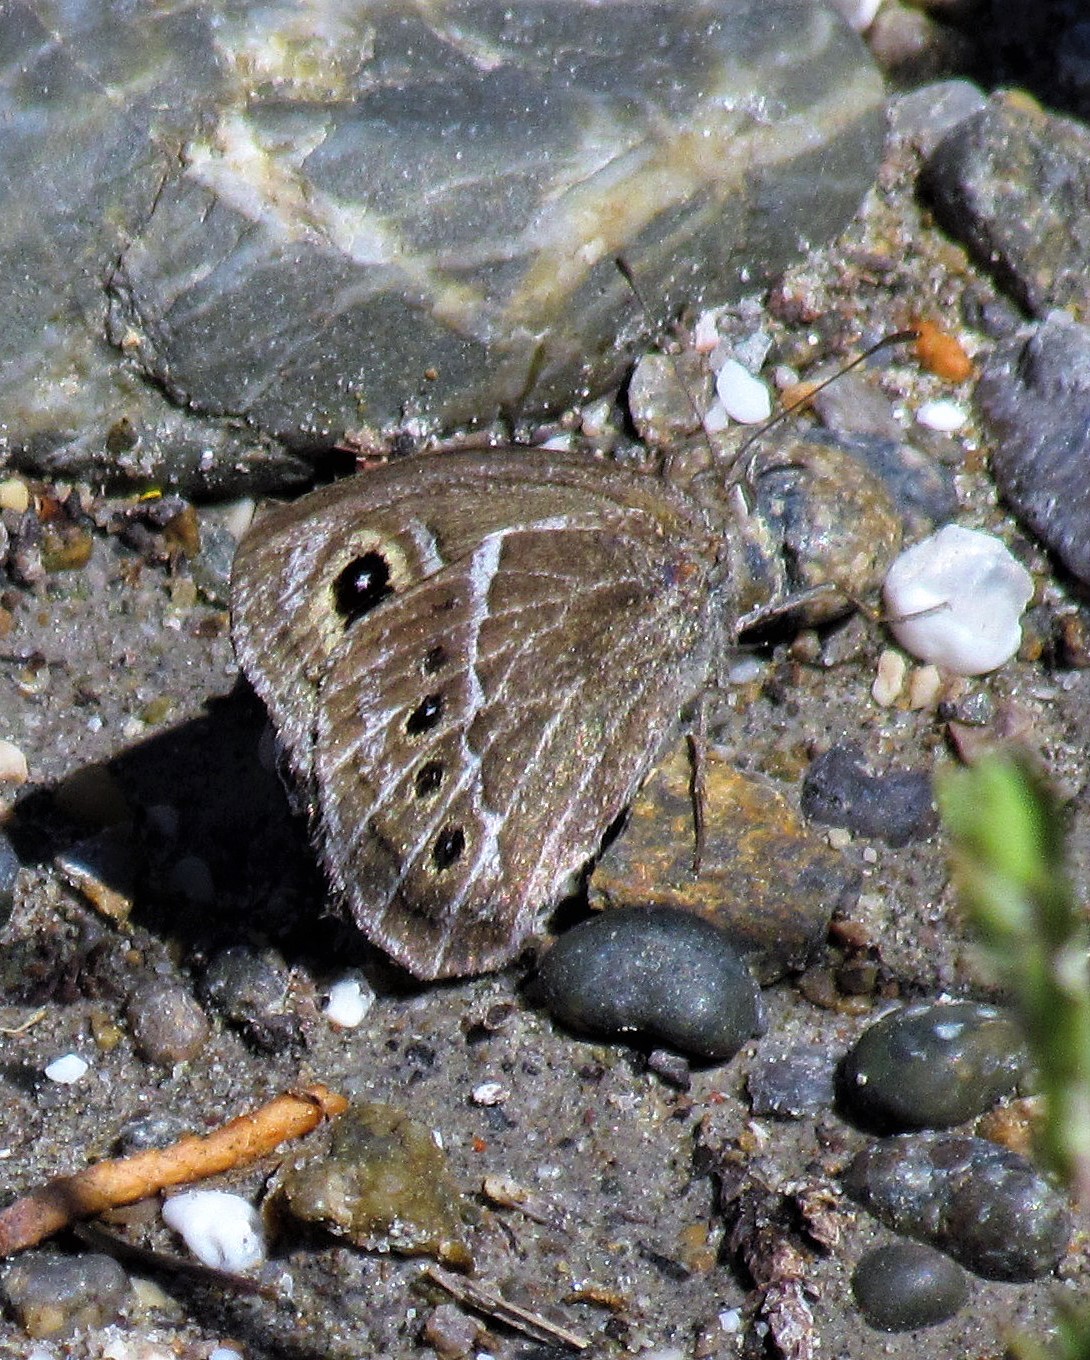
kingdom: Animalia
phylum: Arthropoda
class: Insecta
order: Lepidoptera
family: Nymphalidae
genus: Pampasatyrus
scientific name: Pampasatyrus gyrtone
